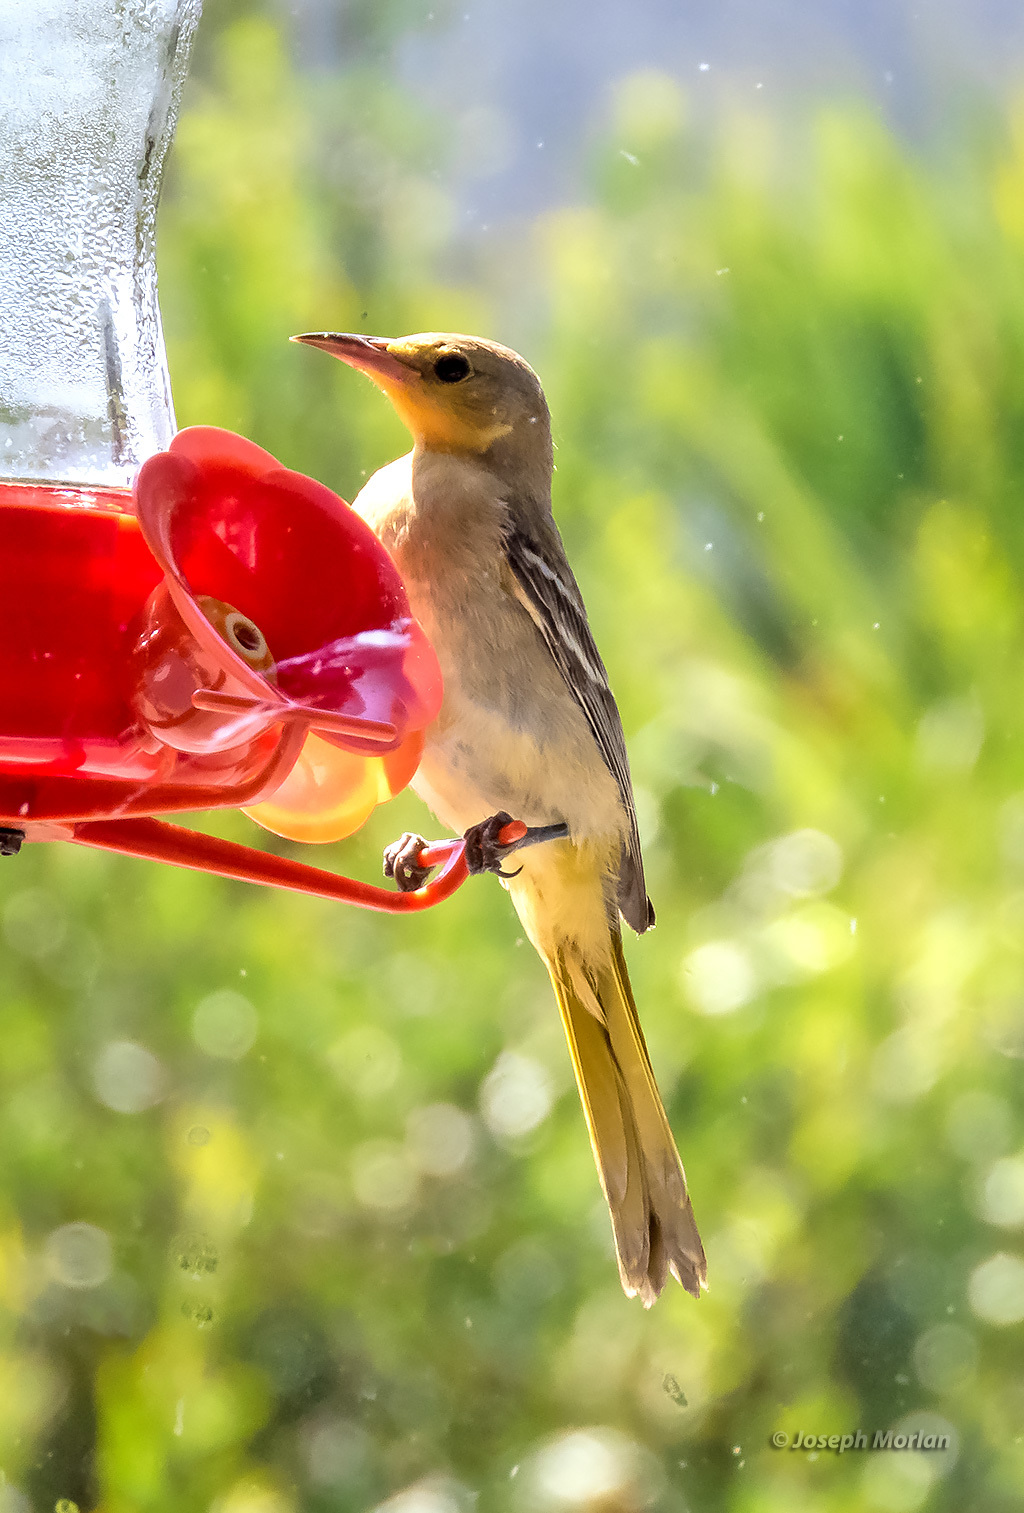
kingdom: Animalia
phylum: Chordata
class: Aves
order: Passeriformes
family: Icteridae
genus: Icterus
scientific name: Icterus cucullatus
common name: Hooded oriole
